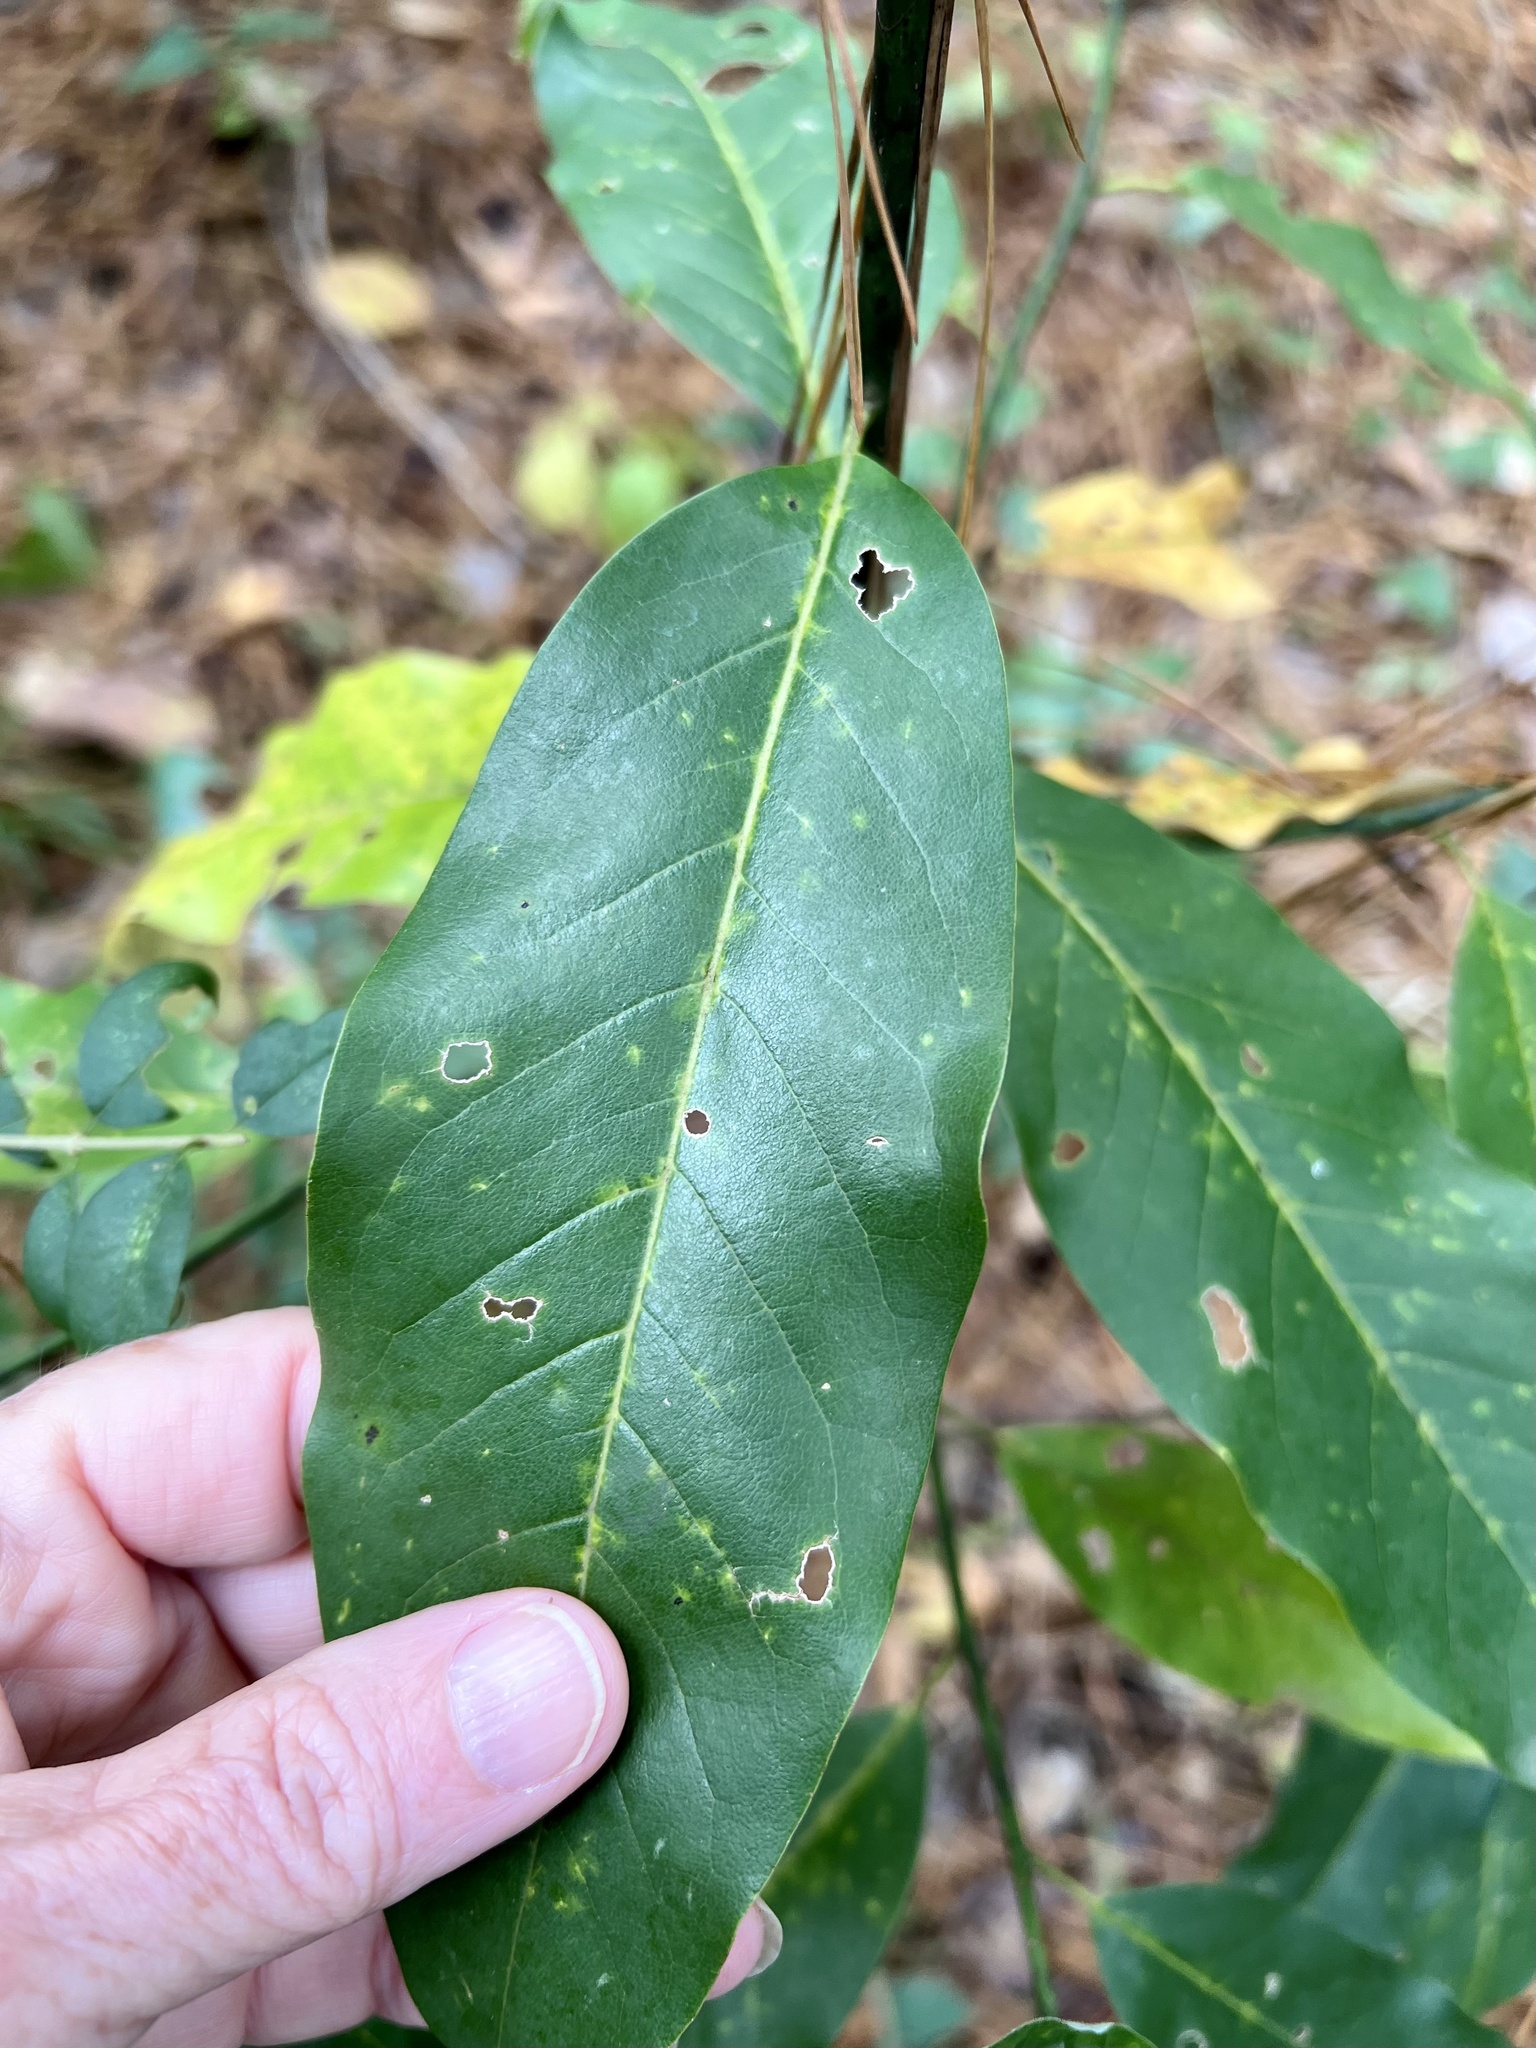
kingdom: Plantae
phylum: Tracheophyta
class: Magnoliopsida
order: Magnoliales
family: Magnoliaceae
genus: Magnolia
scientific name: Magnolia virginiana
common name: Swamp bay
